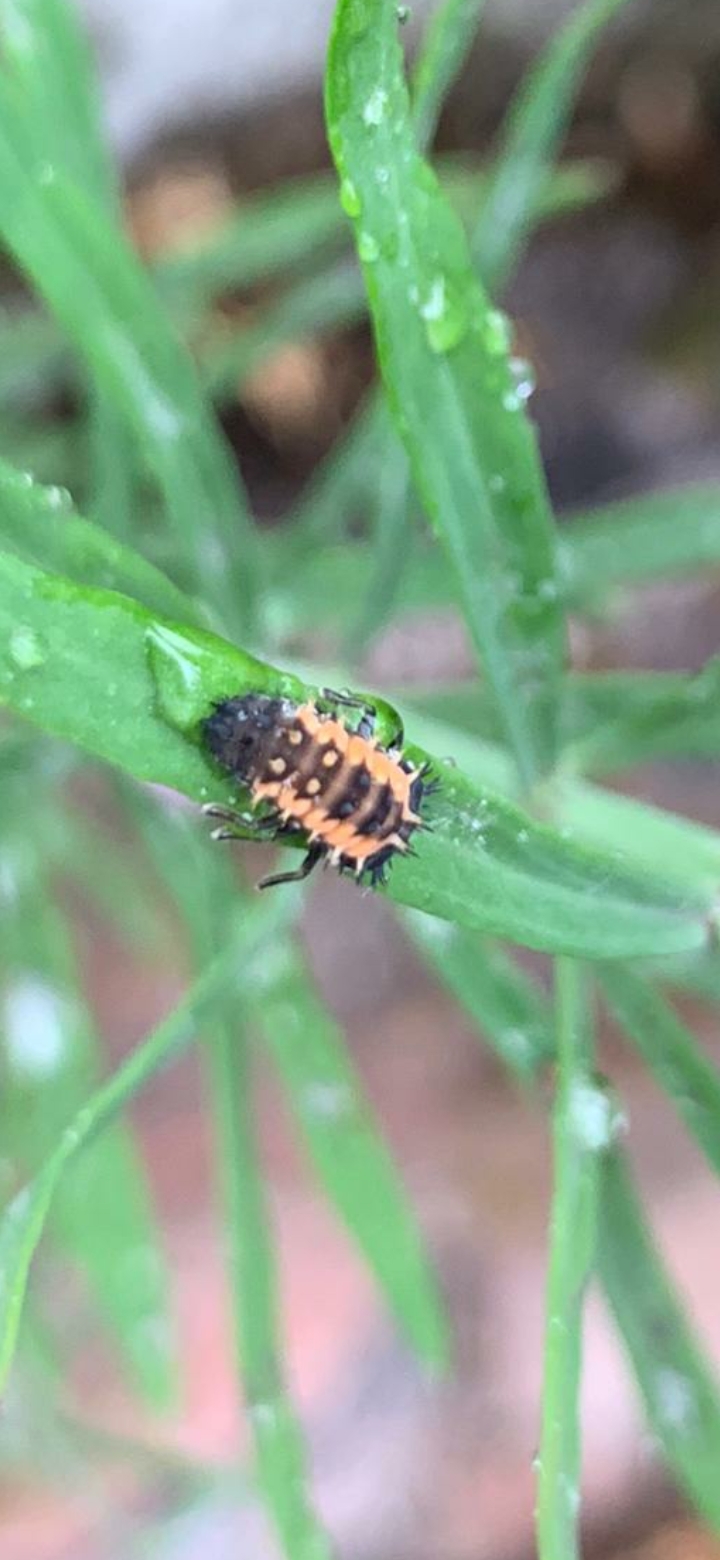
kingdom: Animalia
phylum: Arthropoda
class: Insecta
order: Coleoptera
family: Coccinellidae
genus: Harmonia
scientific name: Harmonia axyridis
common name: Harlequin ladybird
